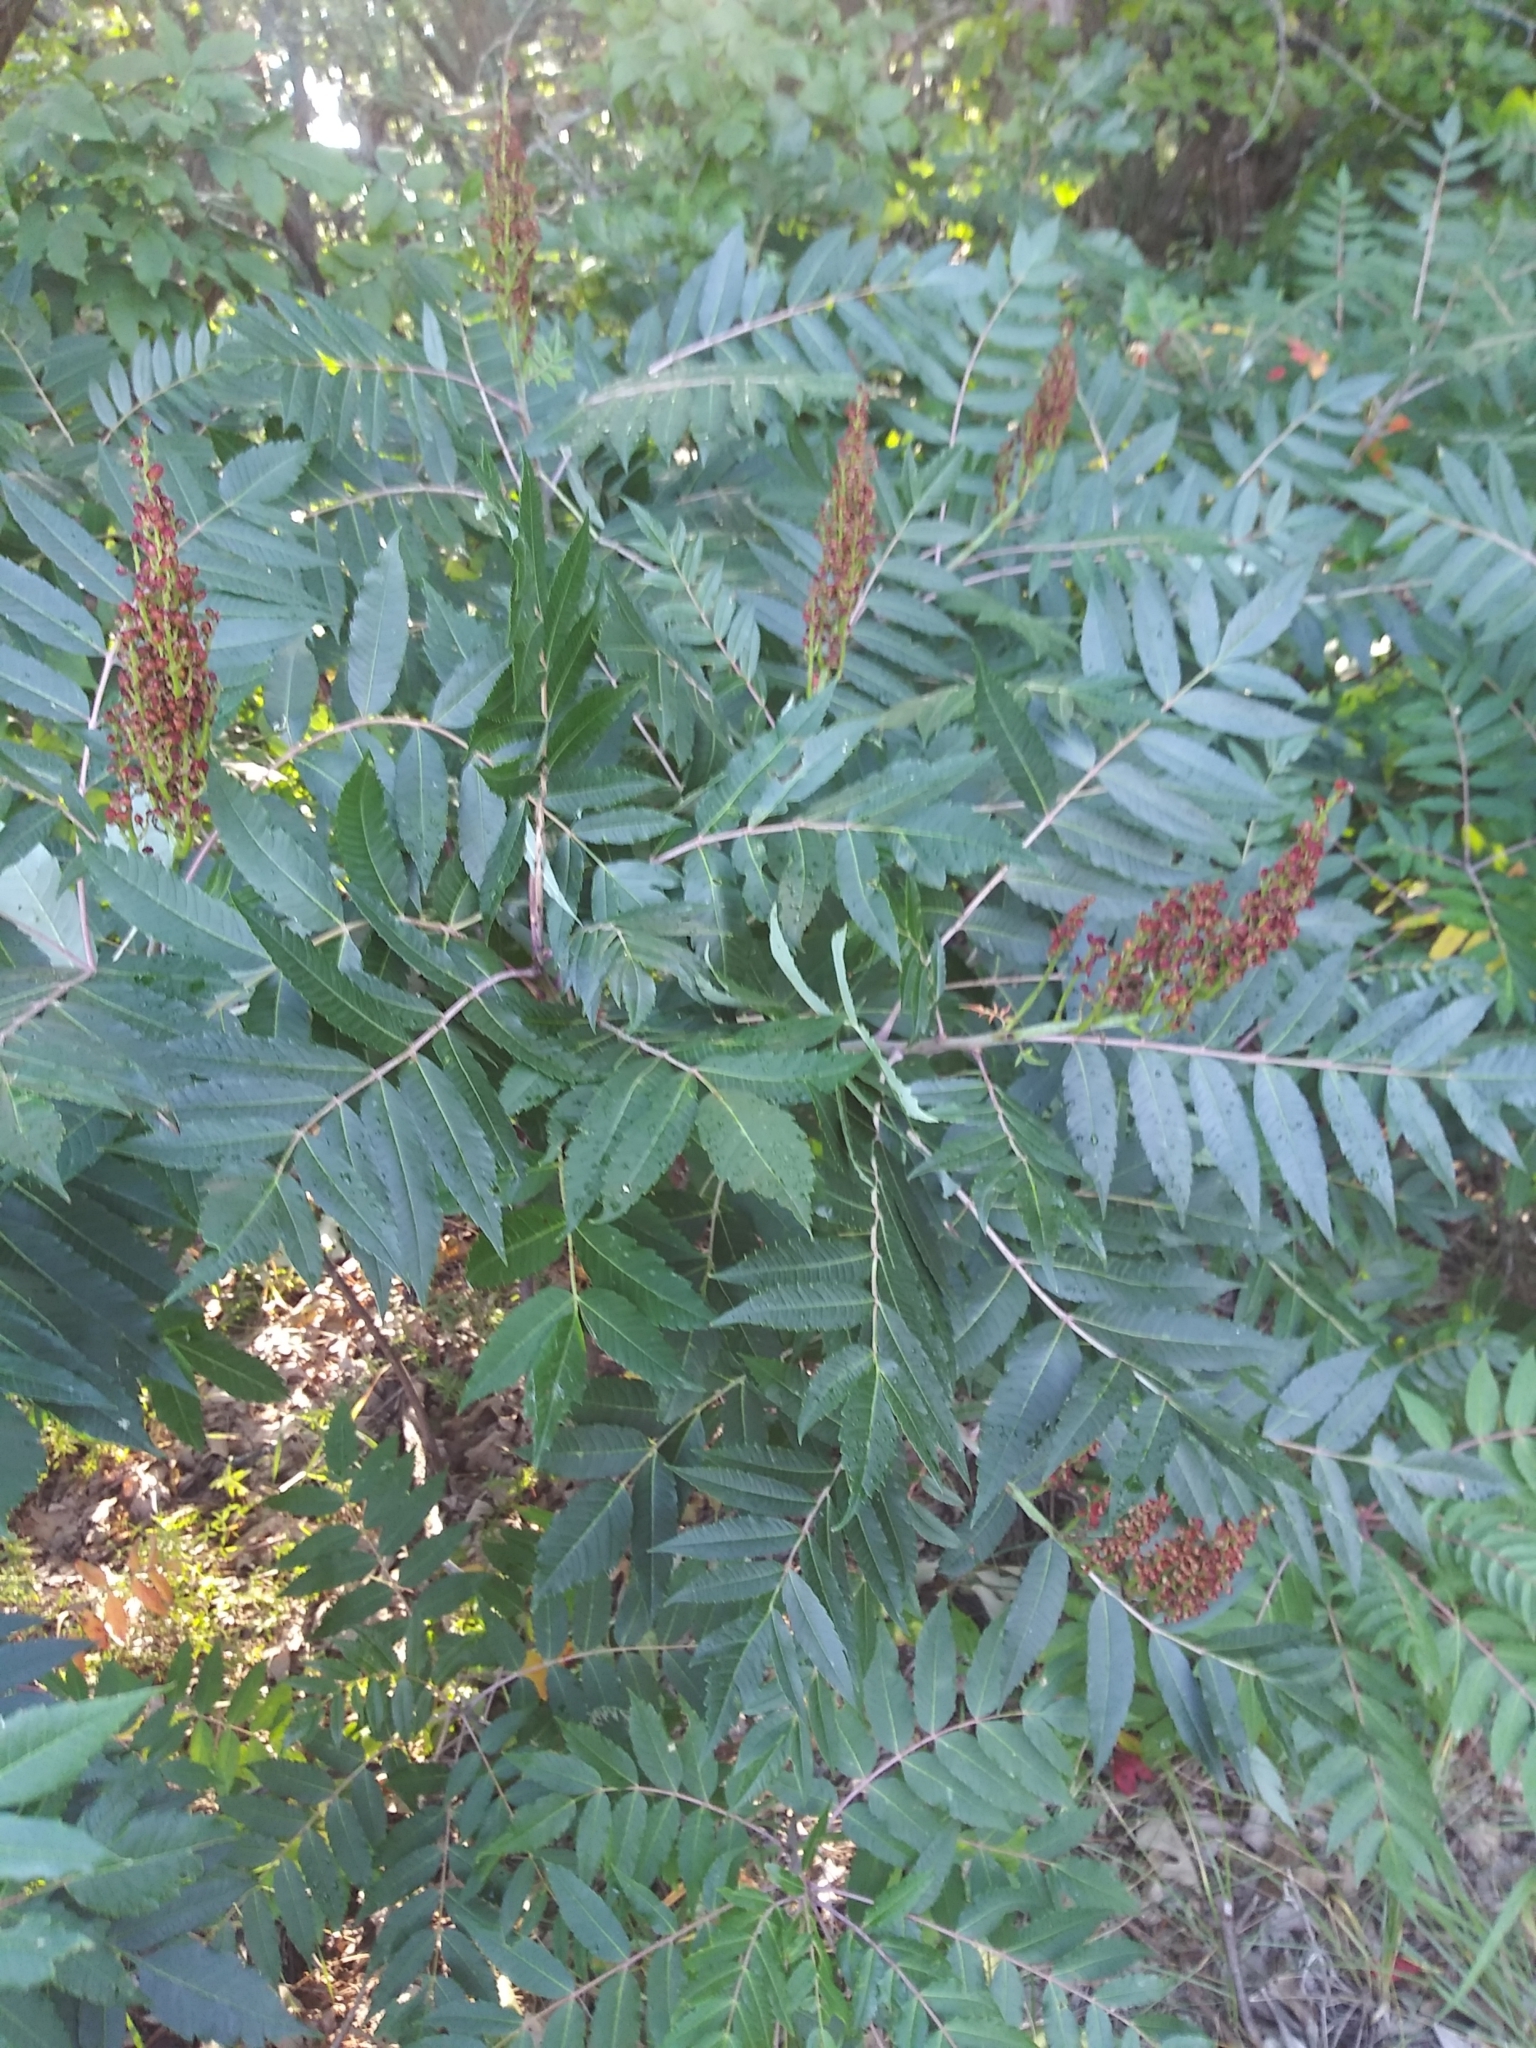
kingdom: Plantae
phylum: Tracheophyta
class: Magnoliopsida
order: Sapindales
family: Anacardiaceae
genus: Rhus
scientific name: Rhus glabra
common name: Scarlet sumac
